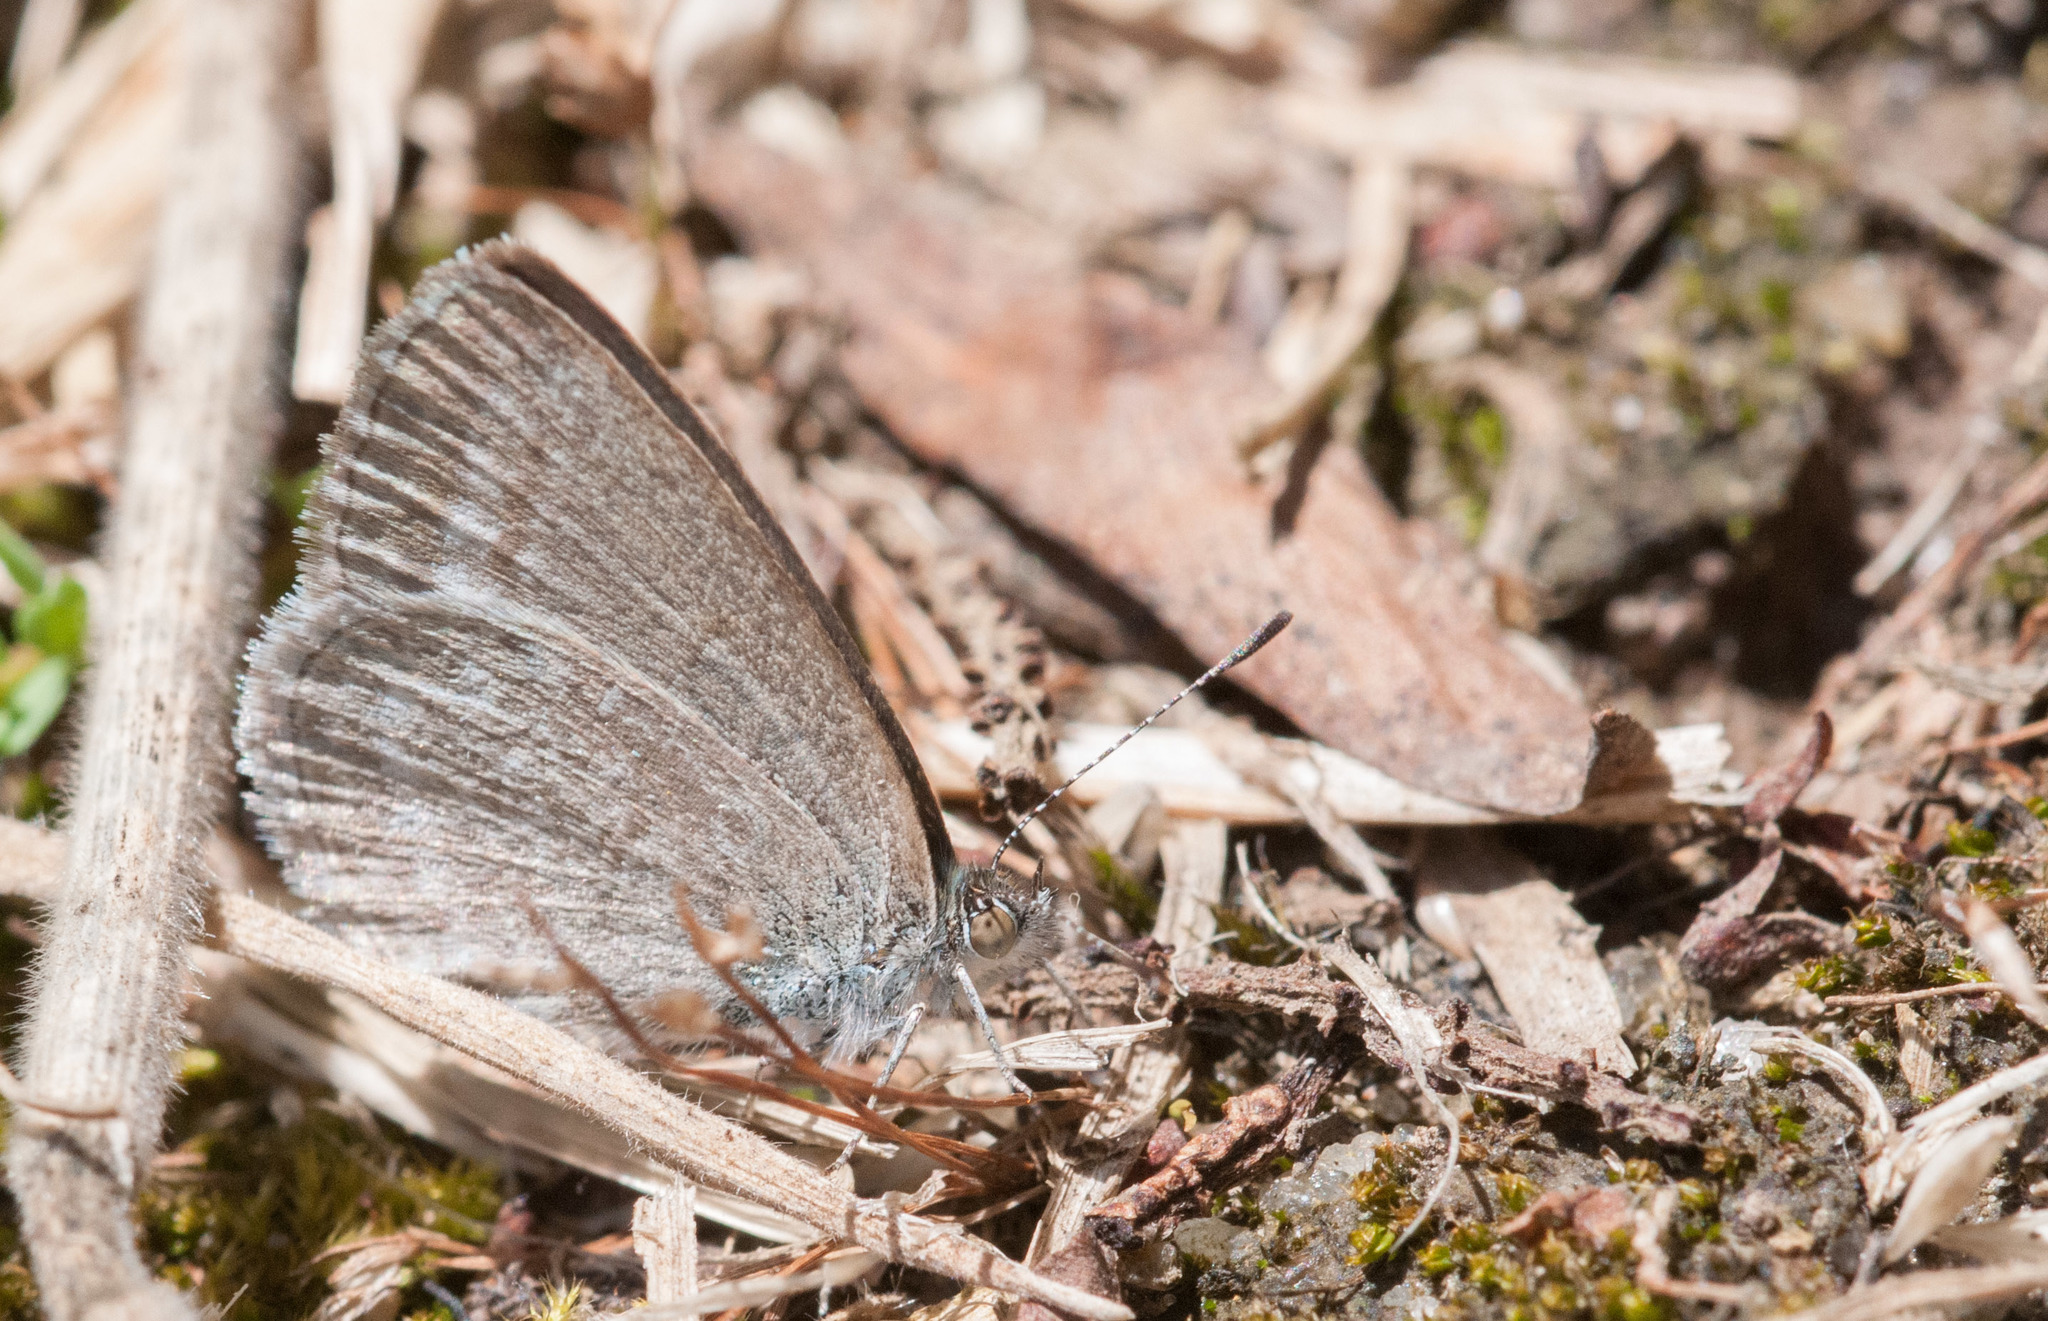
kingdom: Animalia
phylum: Arthropoda
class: Insecta
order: Lepidoptera
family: Lycaenidae
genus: Zizina
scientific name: Zizina labradus
